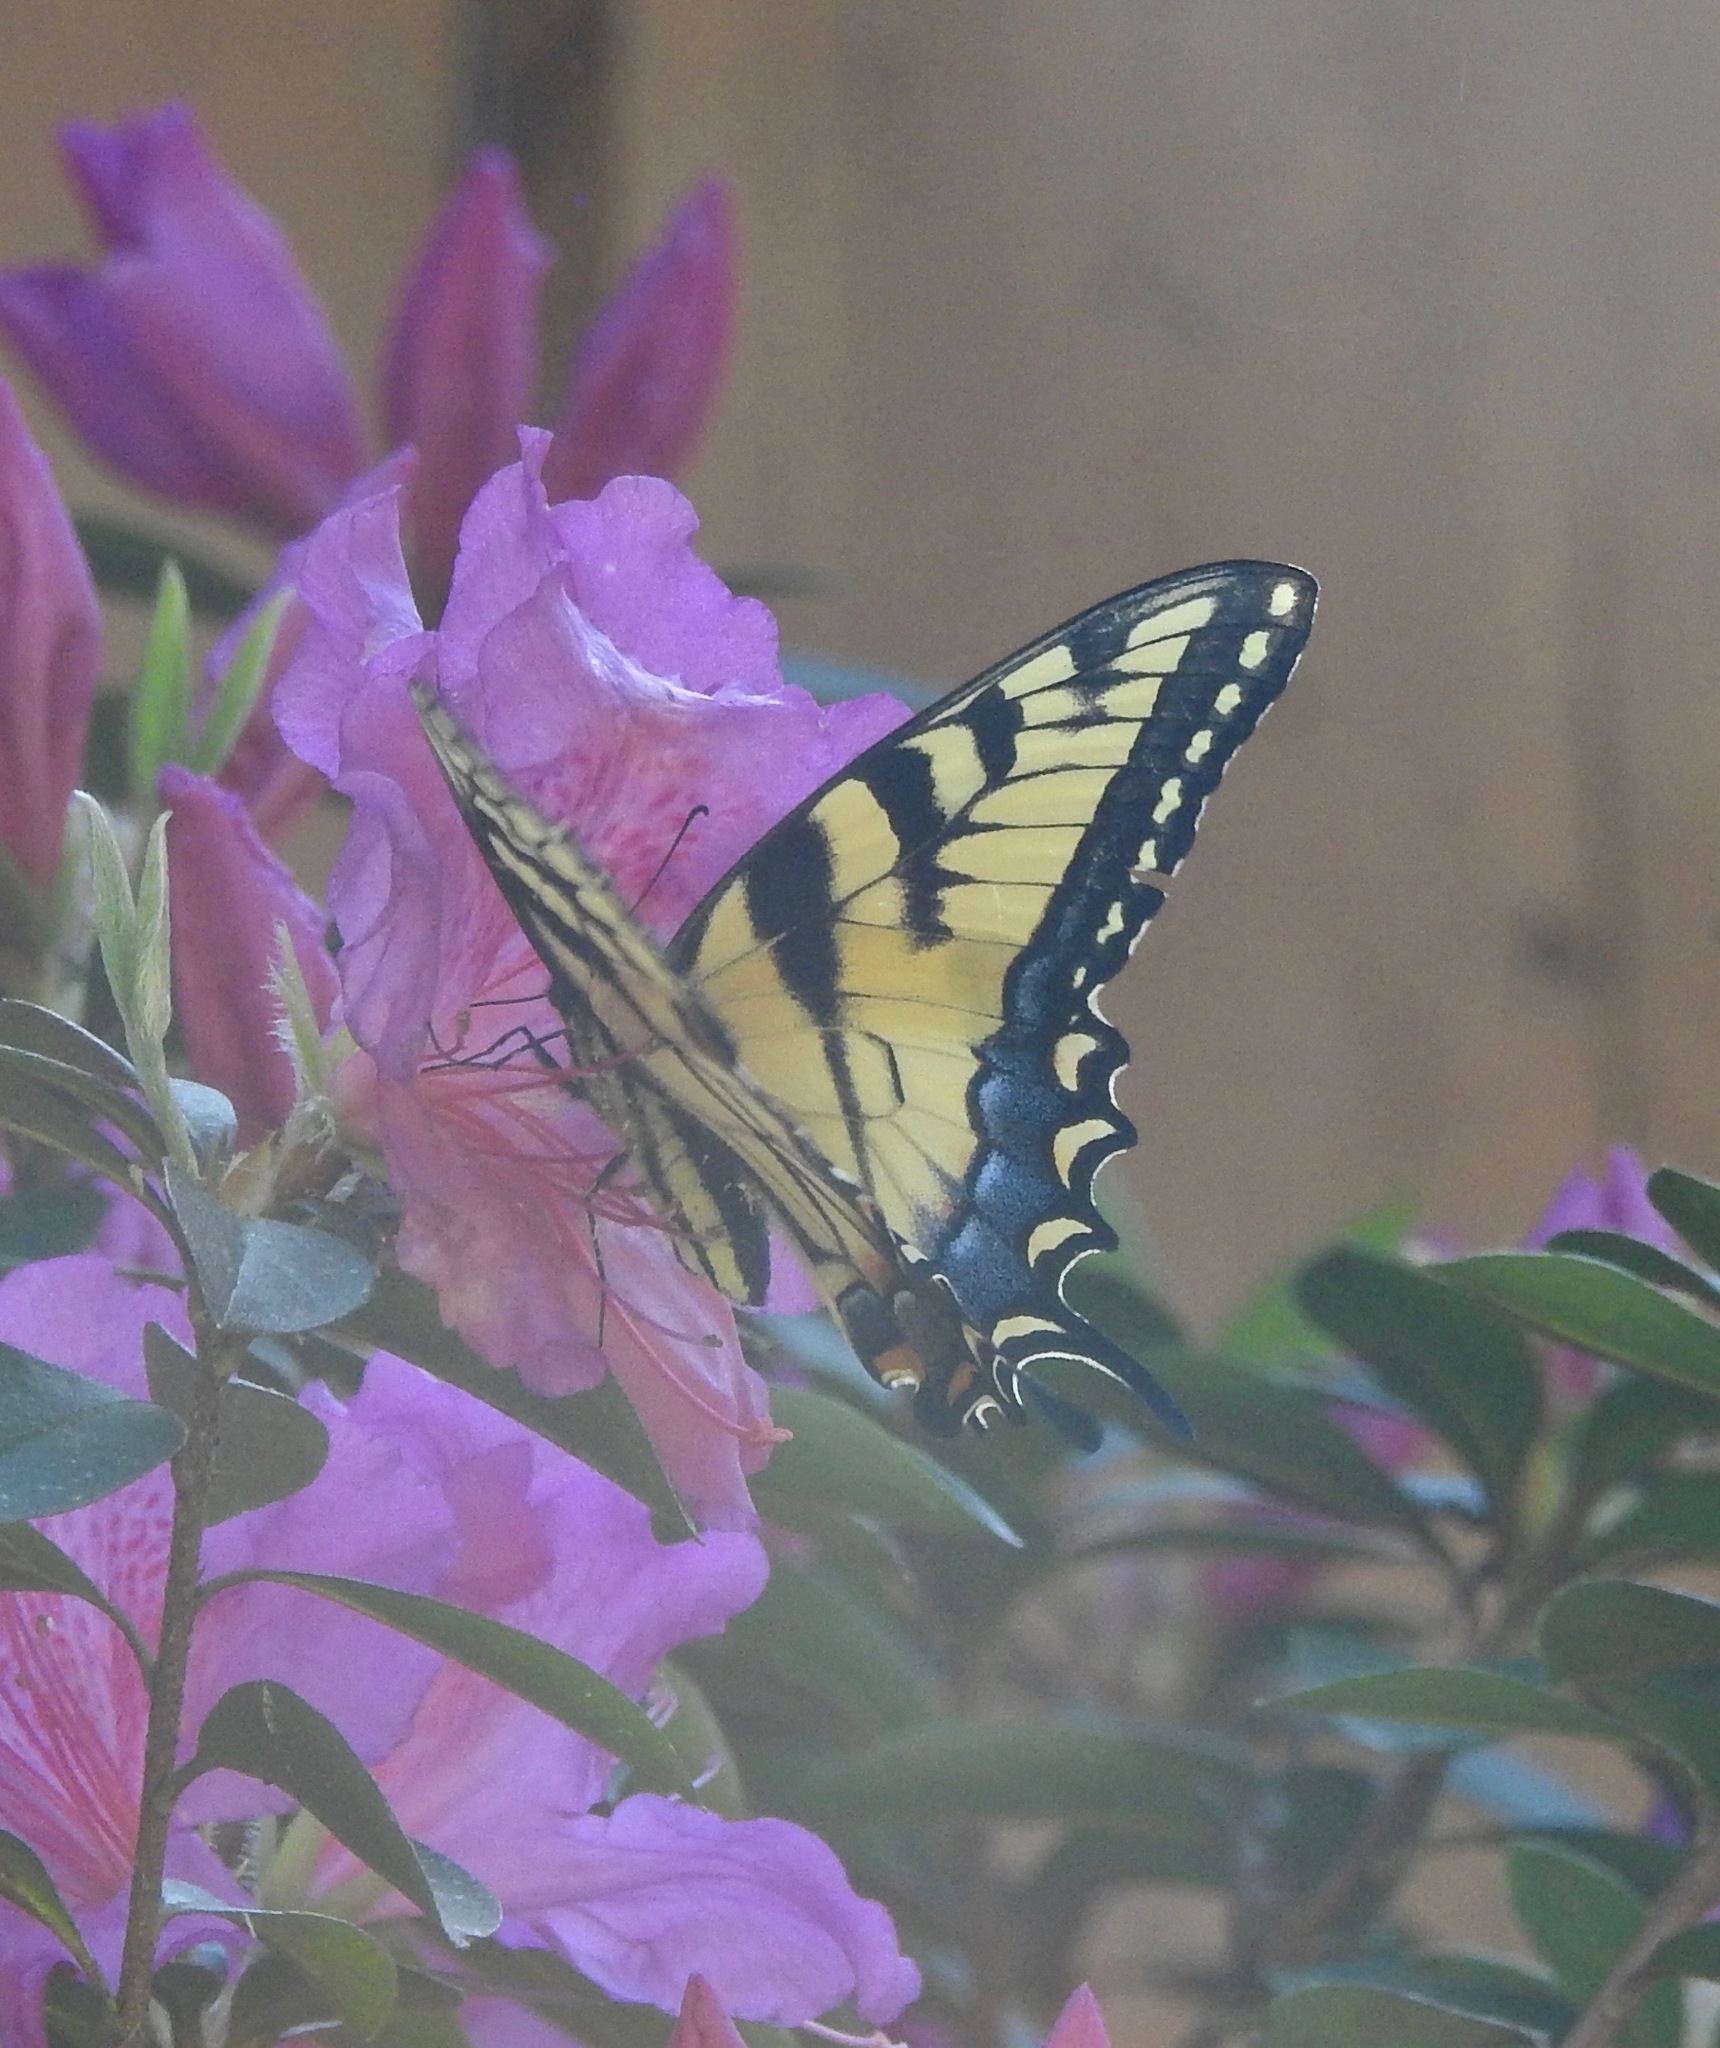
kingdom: Animalia
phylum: Arthropoda
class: Insecta
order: Lepidoptera
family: Papilionidae
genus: Papilio
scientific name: Papilio glaucus
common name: Tiger swallowtail
